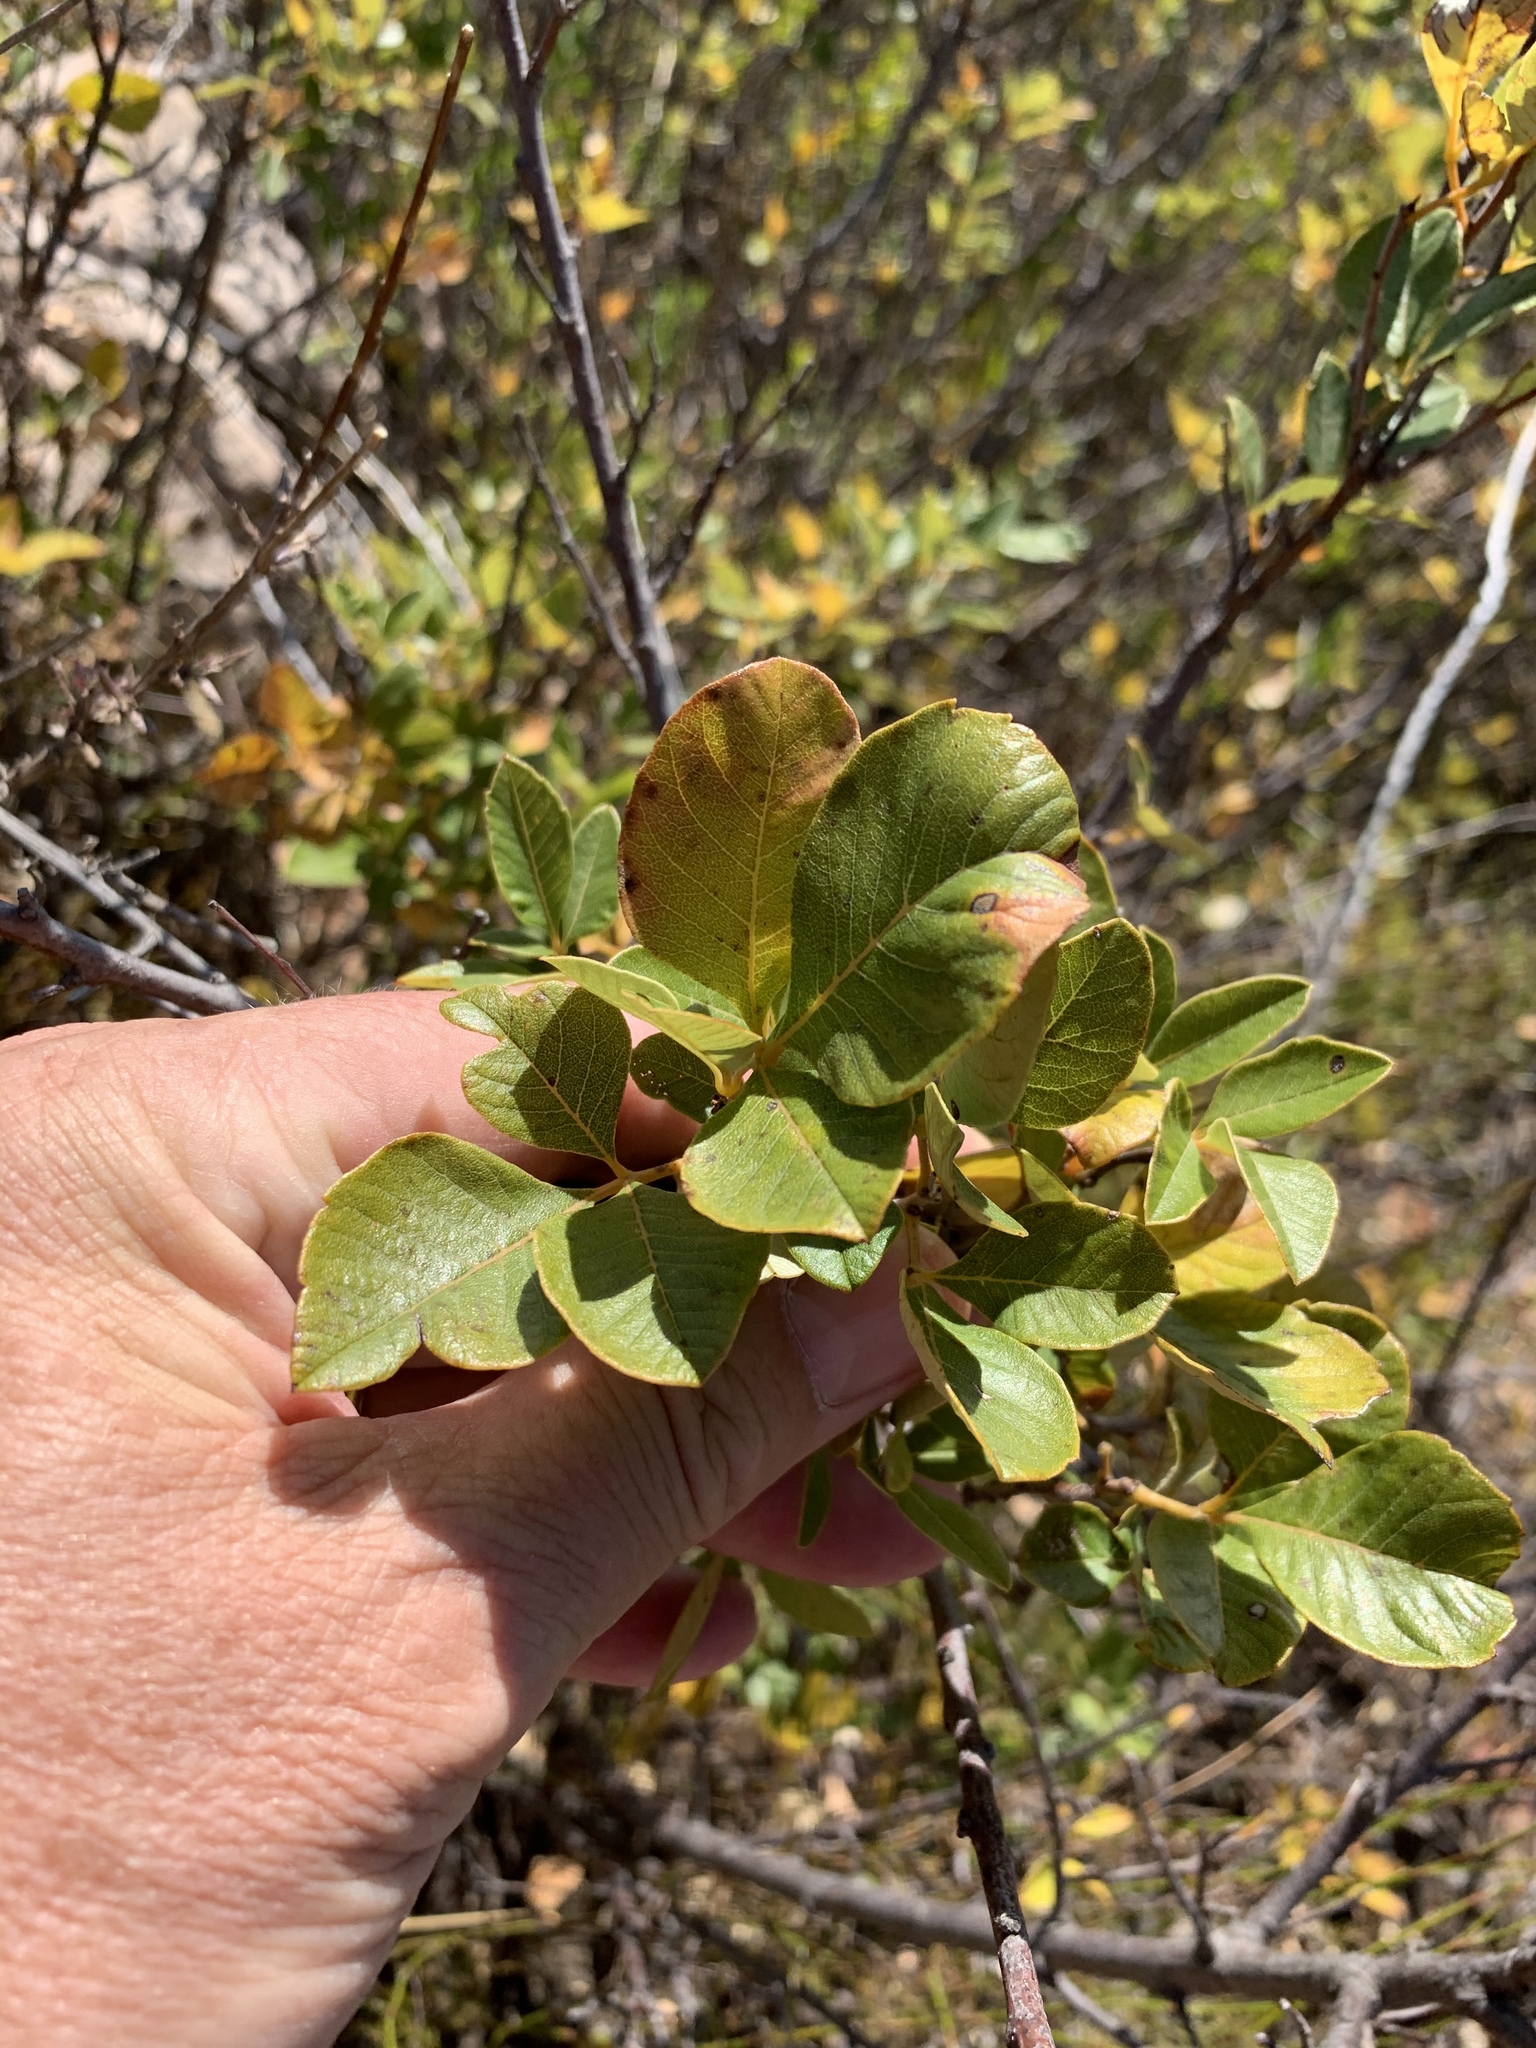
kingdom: Plantae
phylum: Tracheophyta
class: Magnoliopsida
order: Sapindales
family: Anacardiaceae
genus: Searsia
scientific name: Searsia tomentosa
